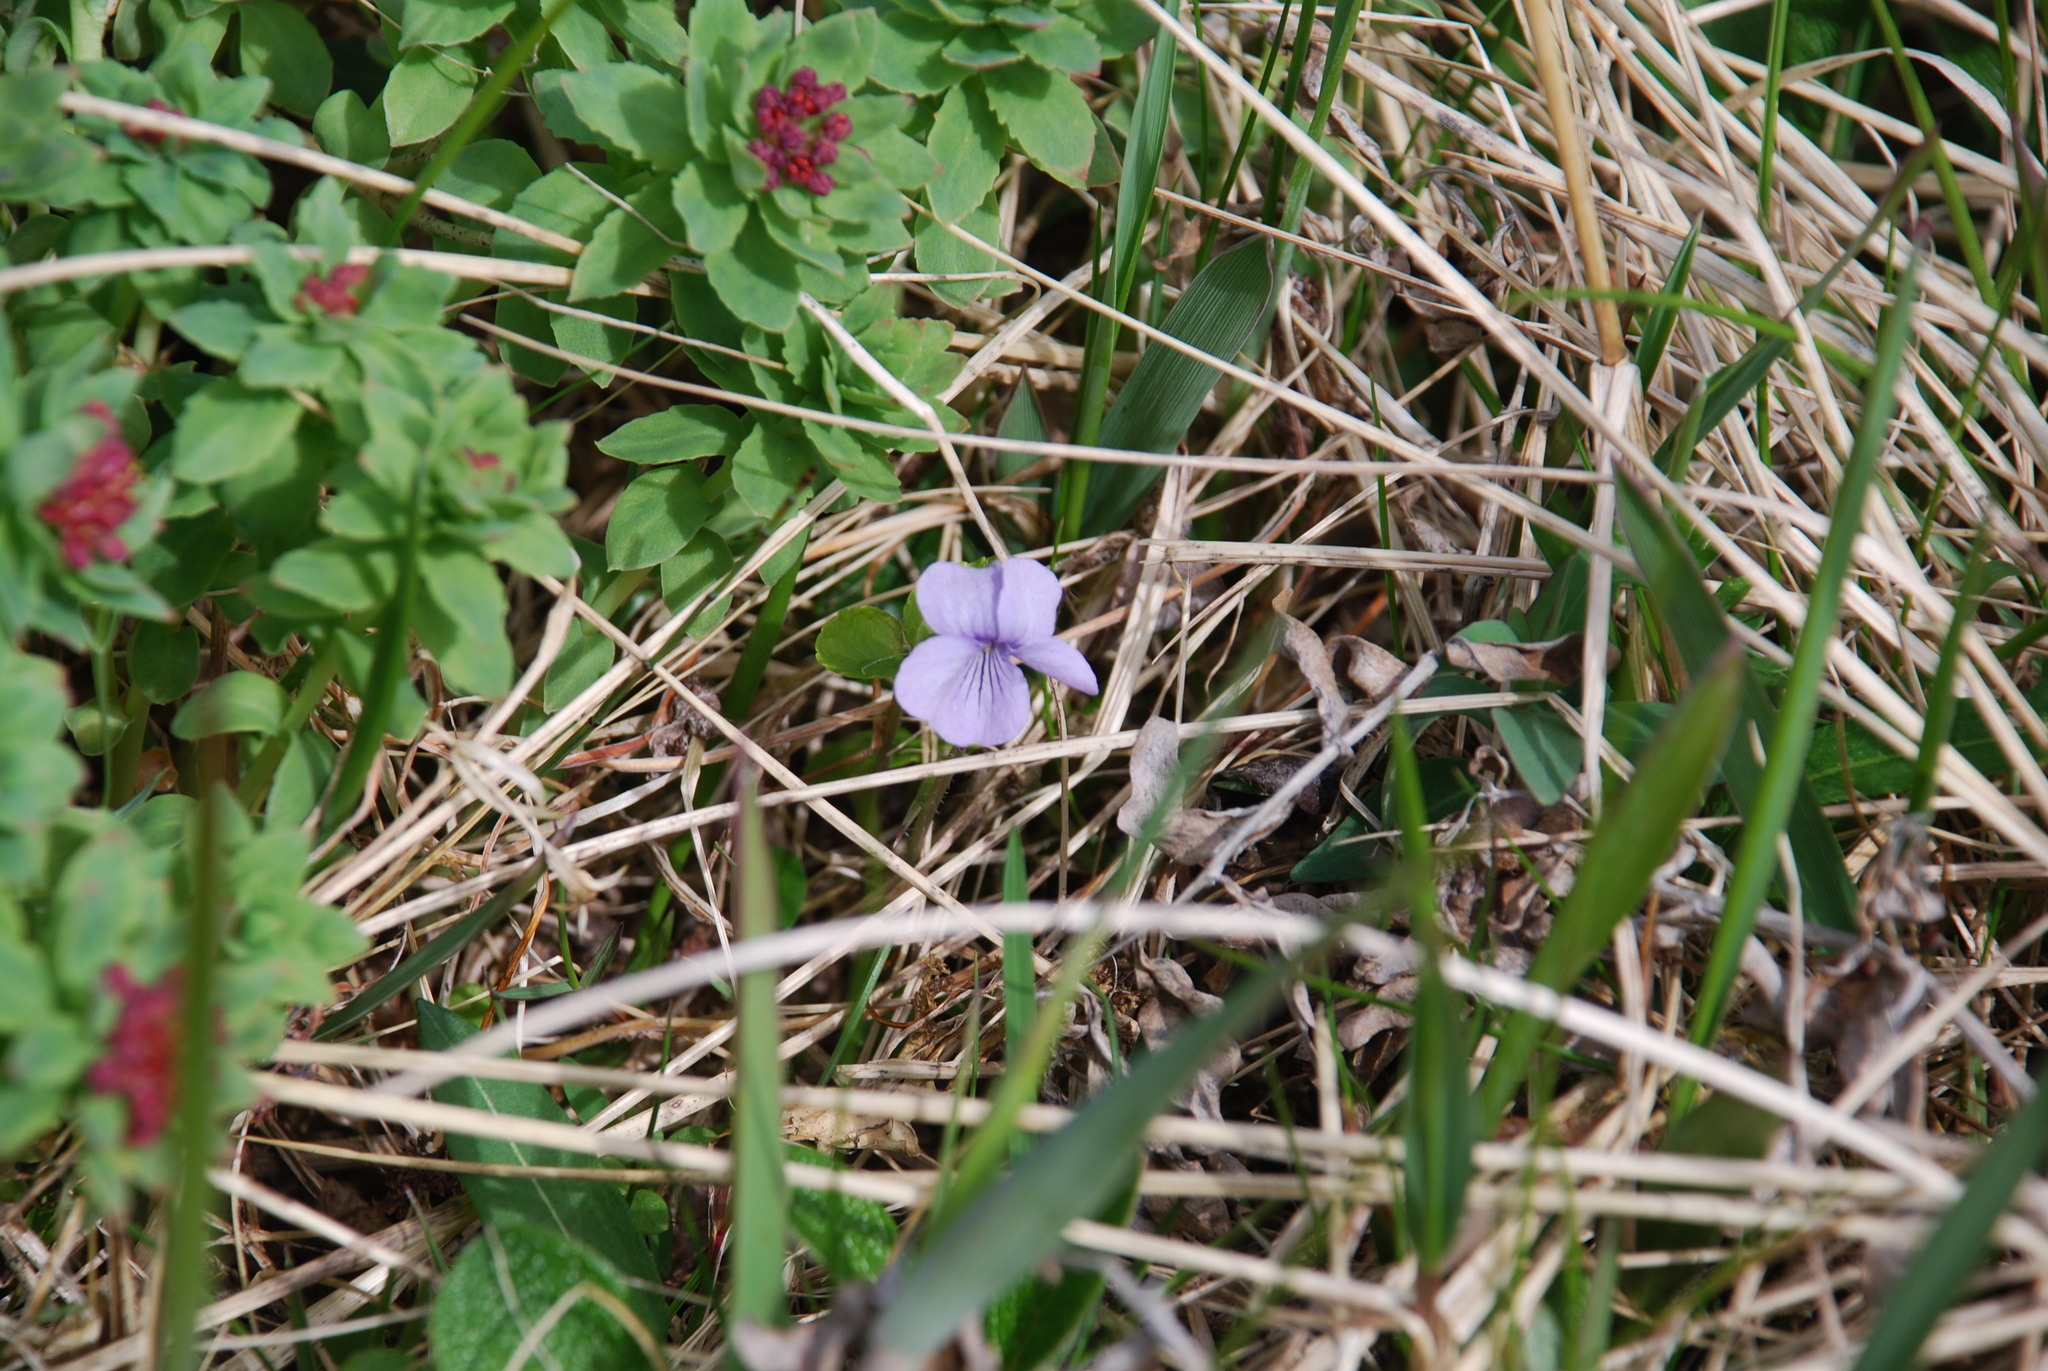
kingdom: Plantae
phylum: Tracheophyta
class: Magnoliopsida
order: Malpighiales
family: Violaceae
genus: Viola
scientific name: Viola epipsila
